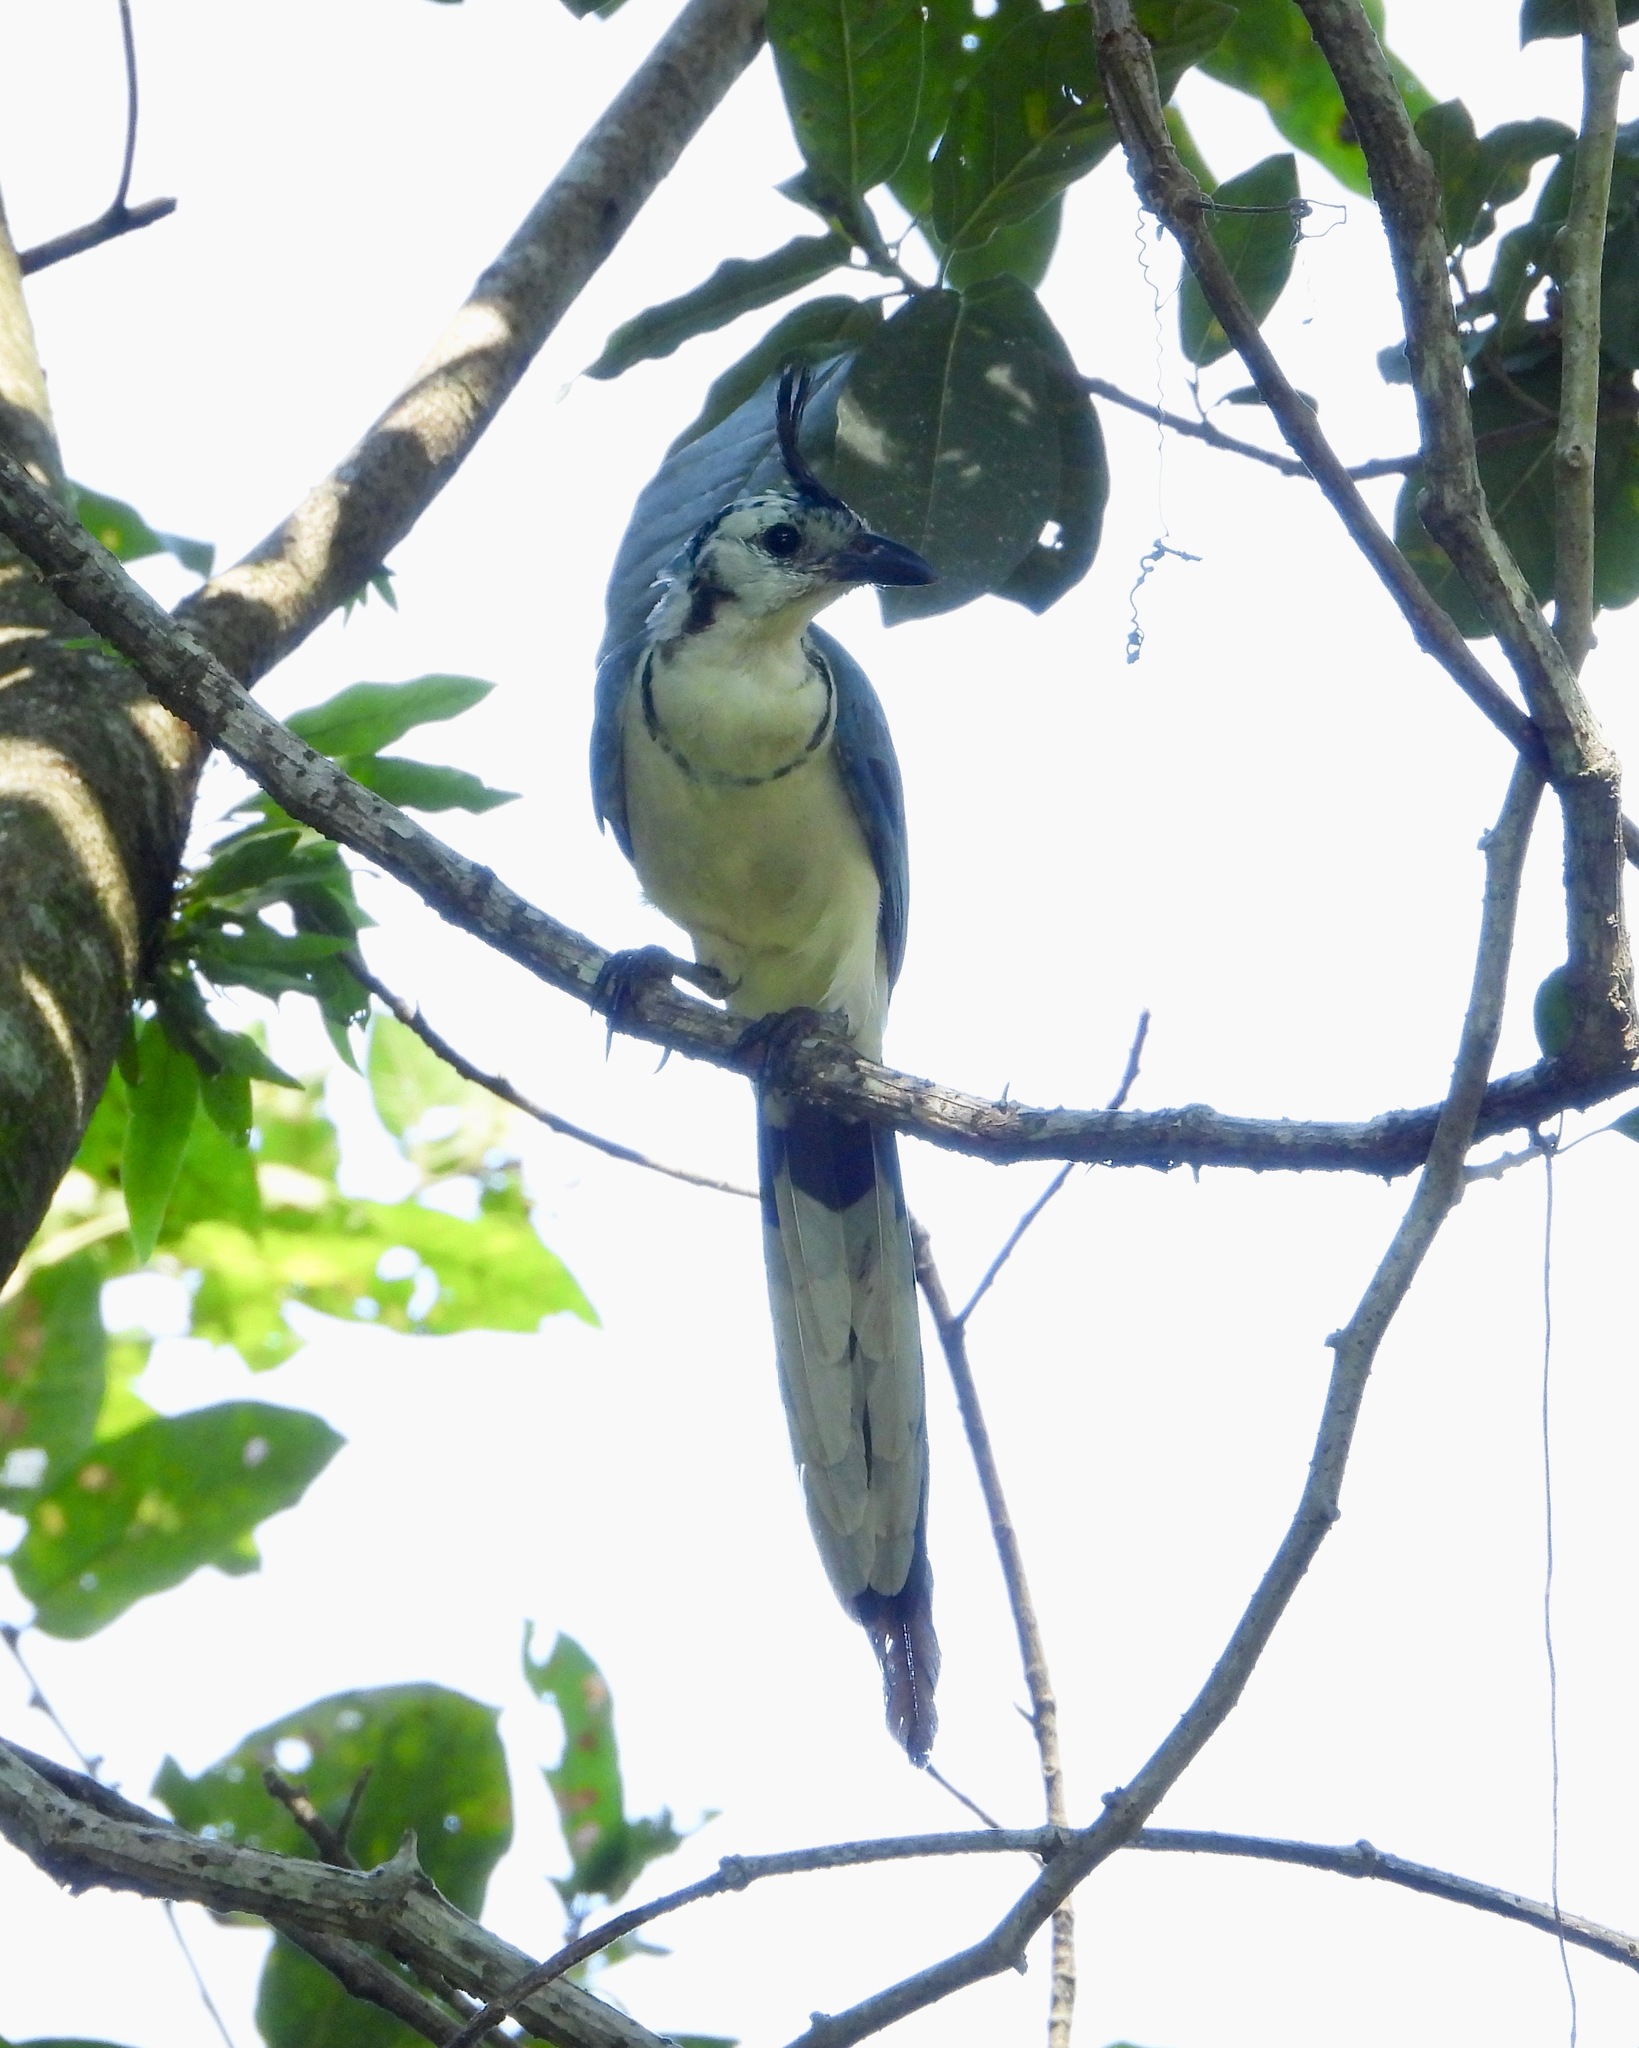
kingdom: Animalia
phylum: Chordata
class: Aves
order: Passeriformes
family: Corvidae
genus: Calocitta
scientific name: Calocitta formosa
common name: White-throated magpie-jay
